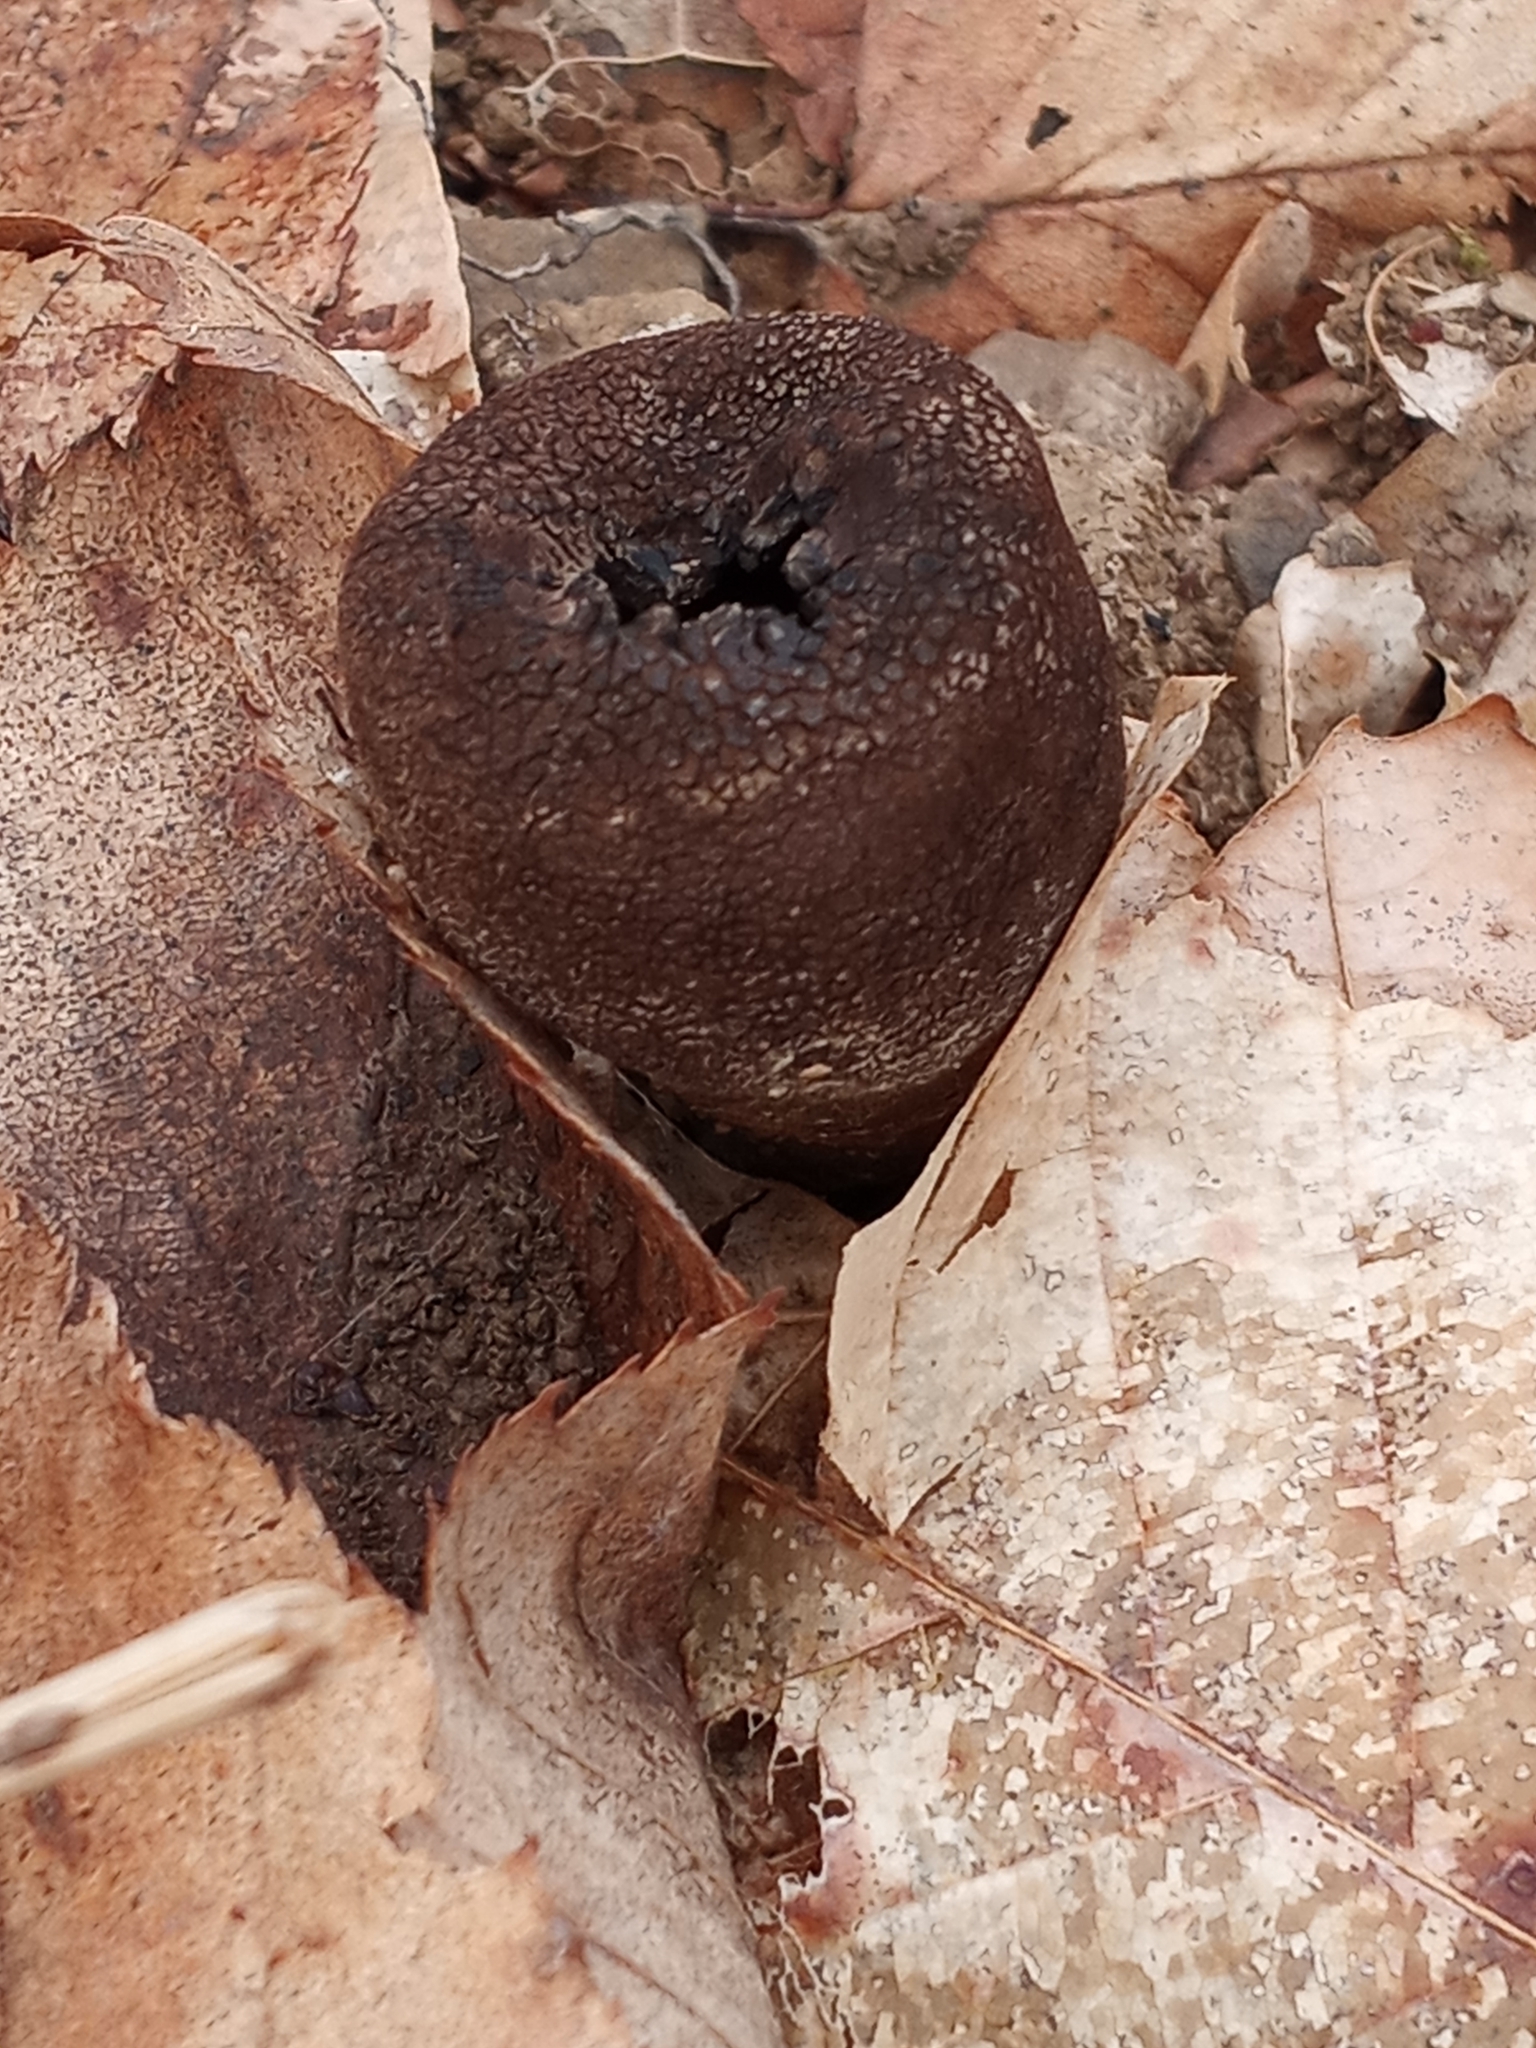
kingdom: Fungi
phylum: Ascomycota
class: Pezizomycetes
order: Pezizales
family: Sarcosomataceae
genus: Urnula
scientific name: Urnula craterium
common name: Devil's urn
